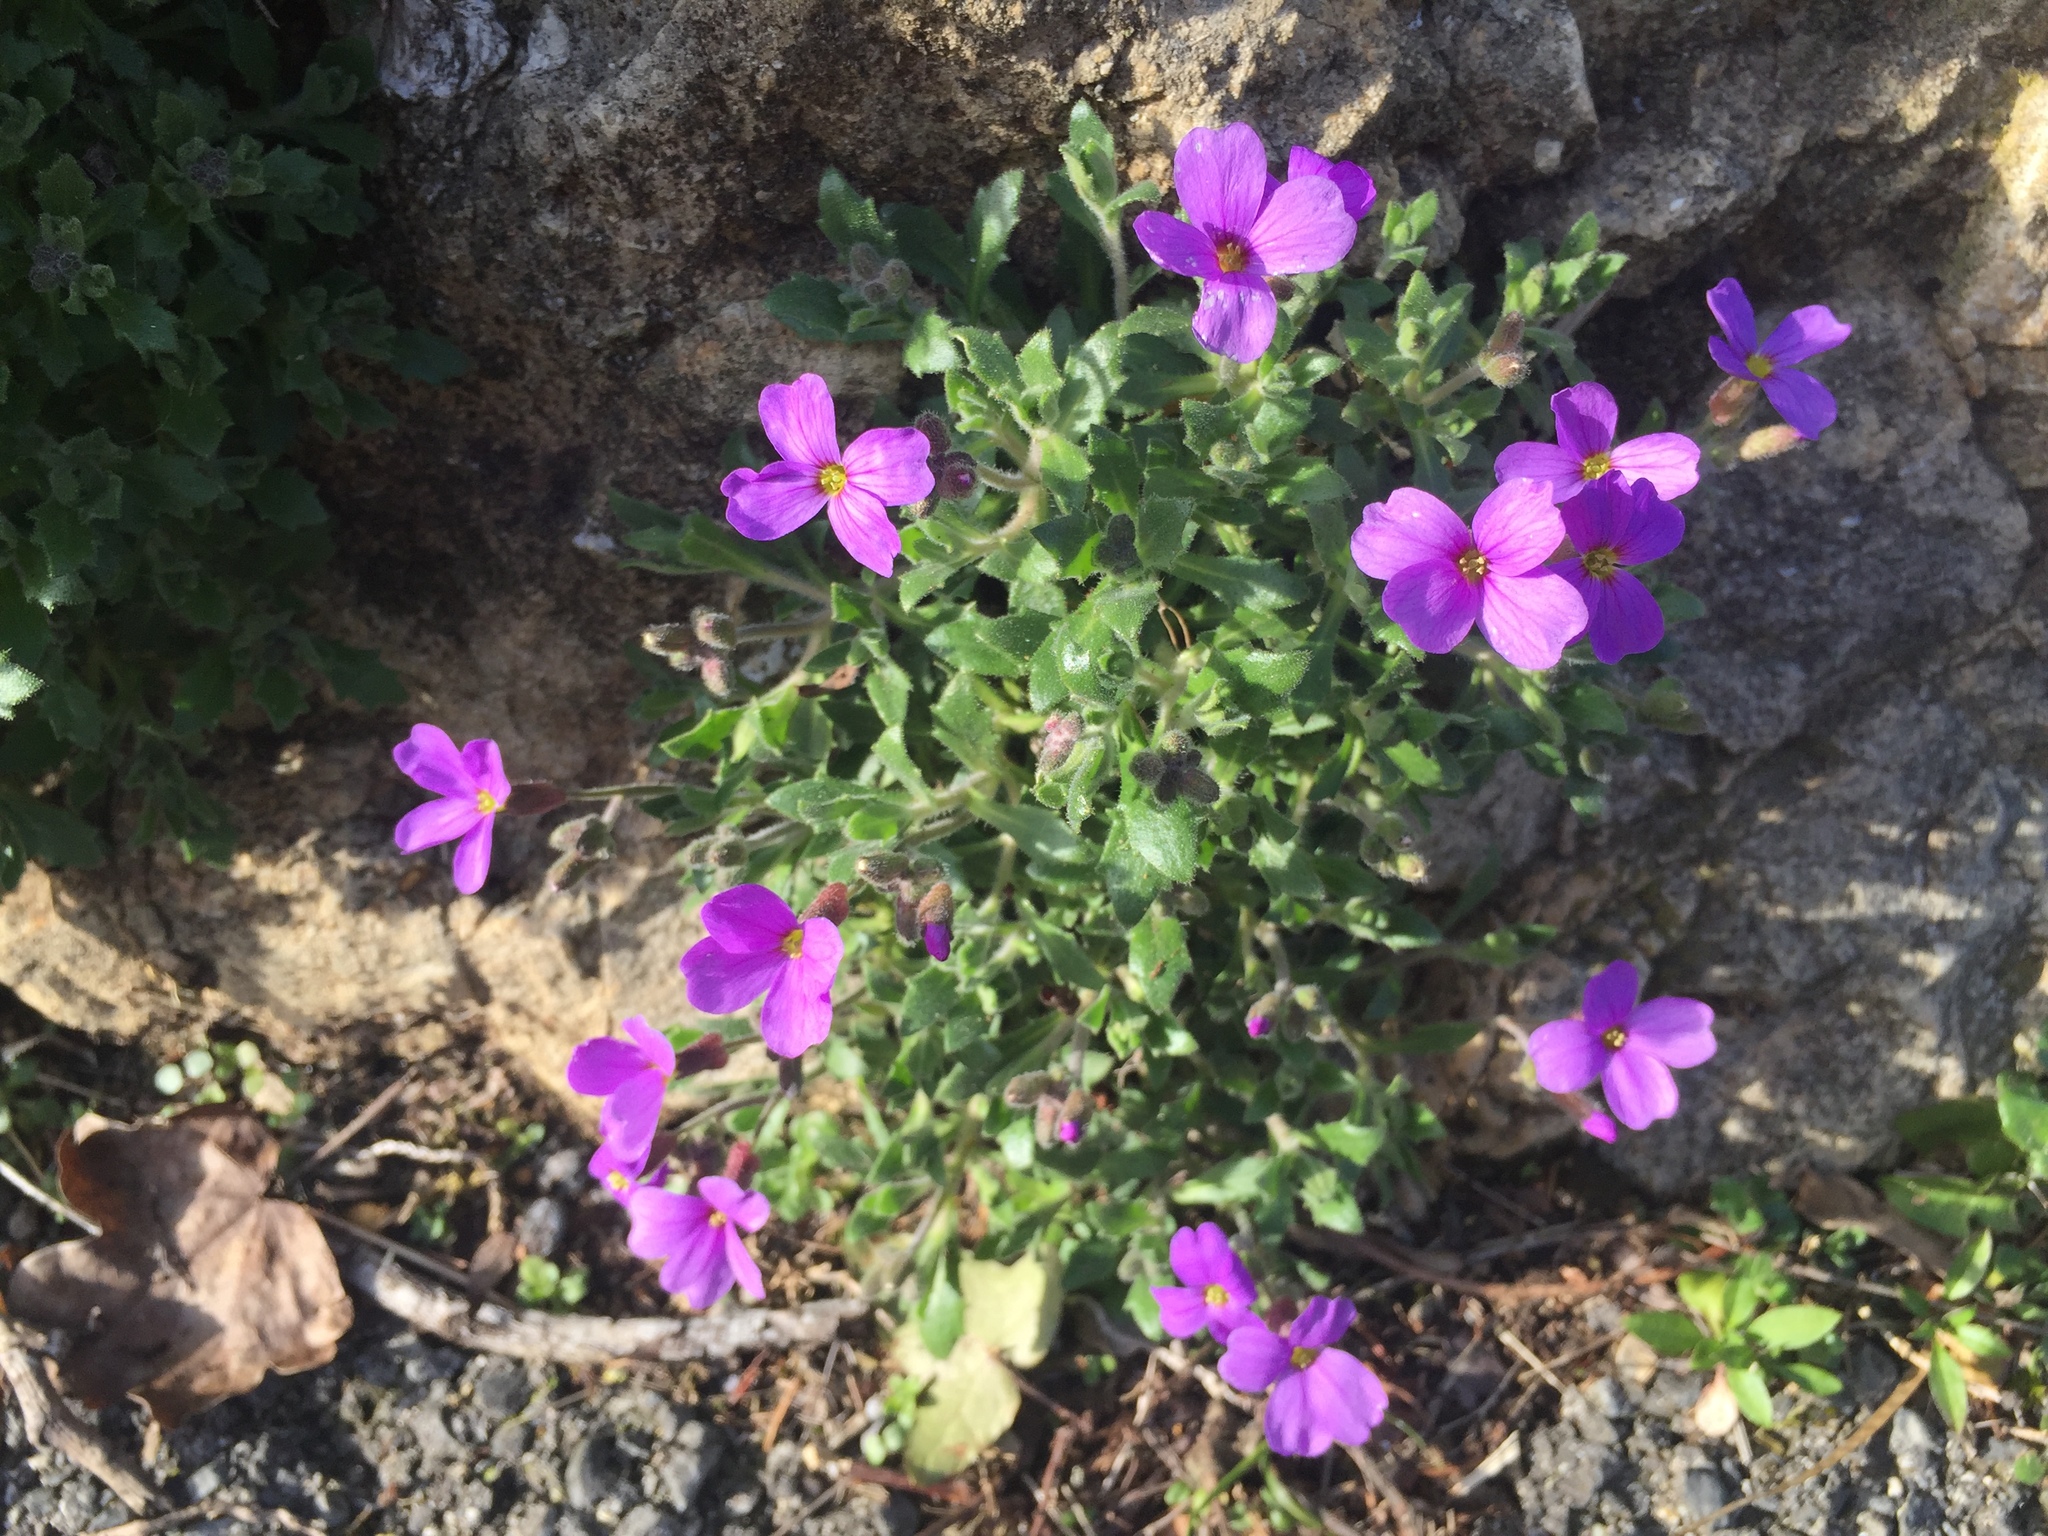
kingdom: Plantae
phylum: Tracheophyta
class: Magnoliopsida
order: Brassicales
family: Brassicaceae
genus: Aubrieta
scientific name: Aubrieta deltoidea
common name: Aubretia
